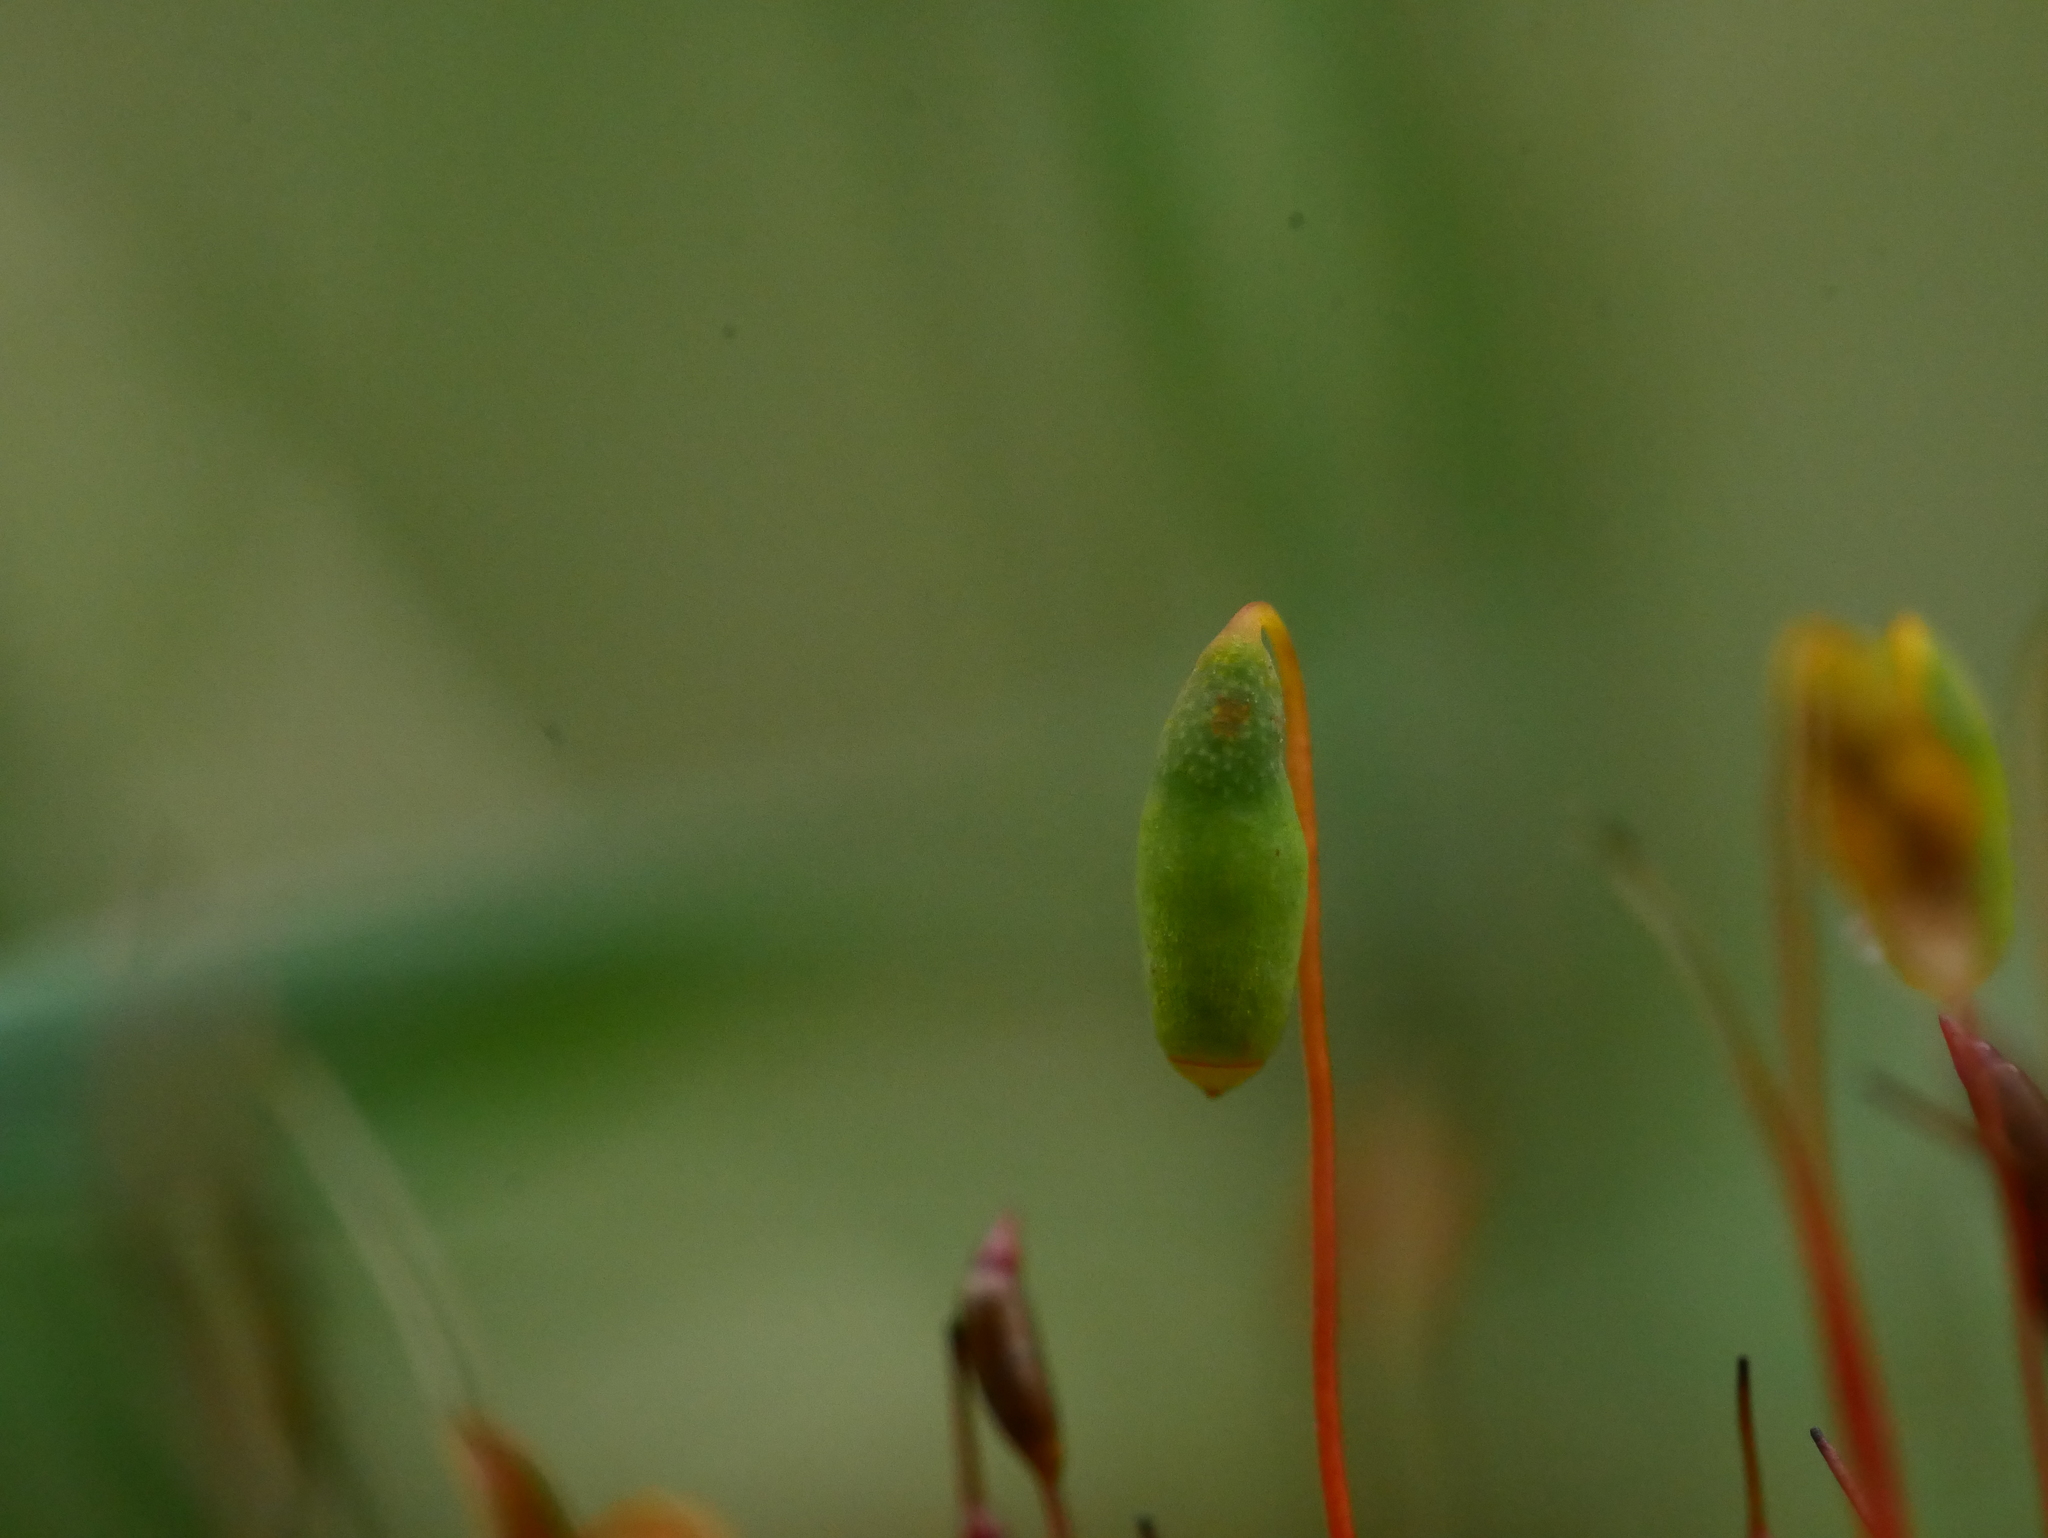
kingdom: Plantae
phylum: Bryophyta
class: Bryopsida
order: Dicranales
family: Ditrichaceae
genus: Ceratodon
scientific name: Ceratodon purpureus
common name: Redshank
